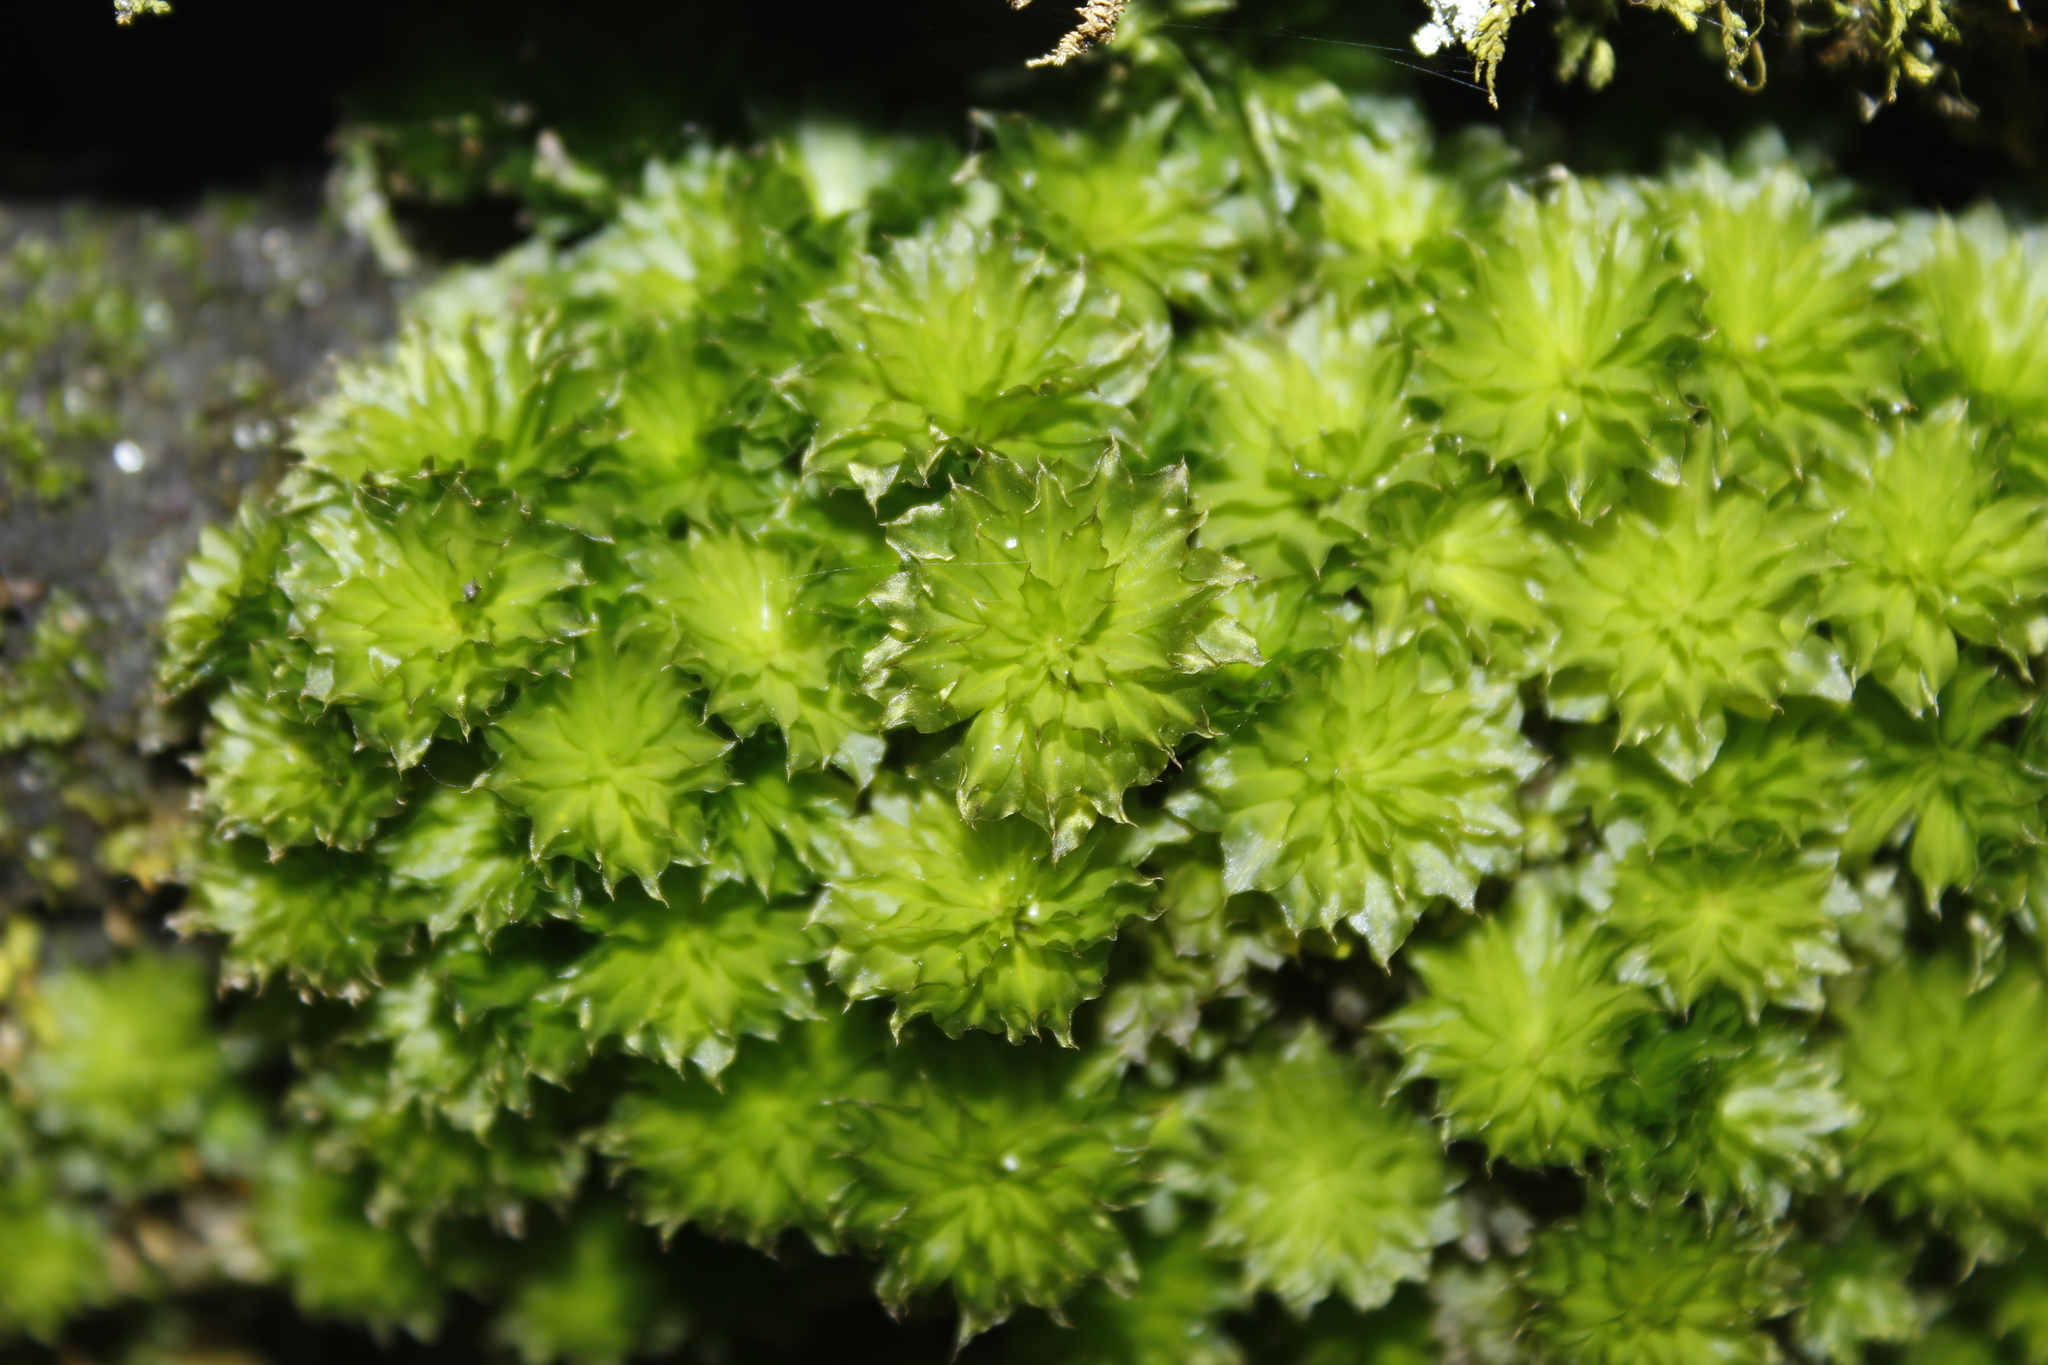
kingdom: Plantae
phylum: Bryophyta
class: Bryopsida
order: Bryales
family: Bryaceae
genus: Rhodobryum
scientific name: Rhodobryum ontariense
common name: Ontario rhodobryum moss
